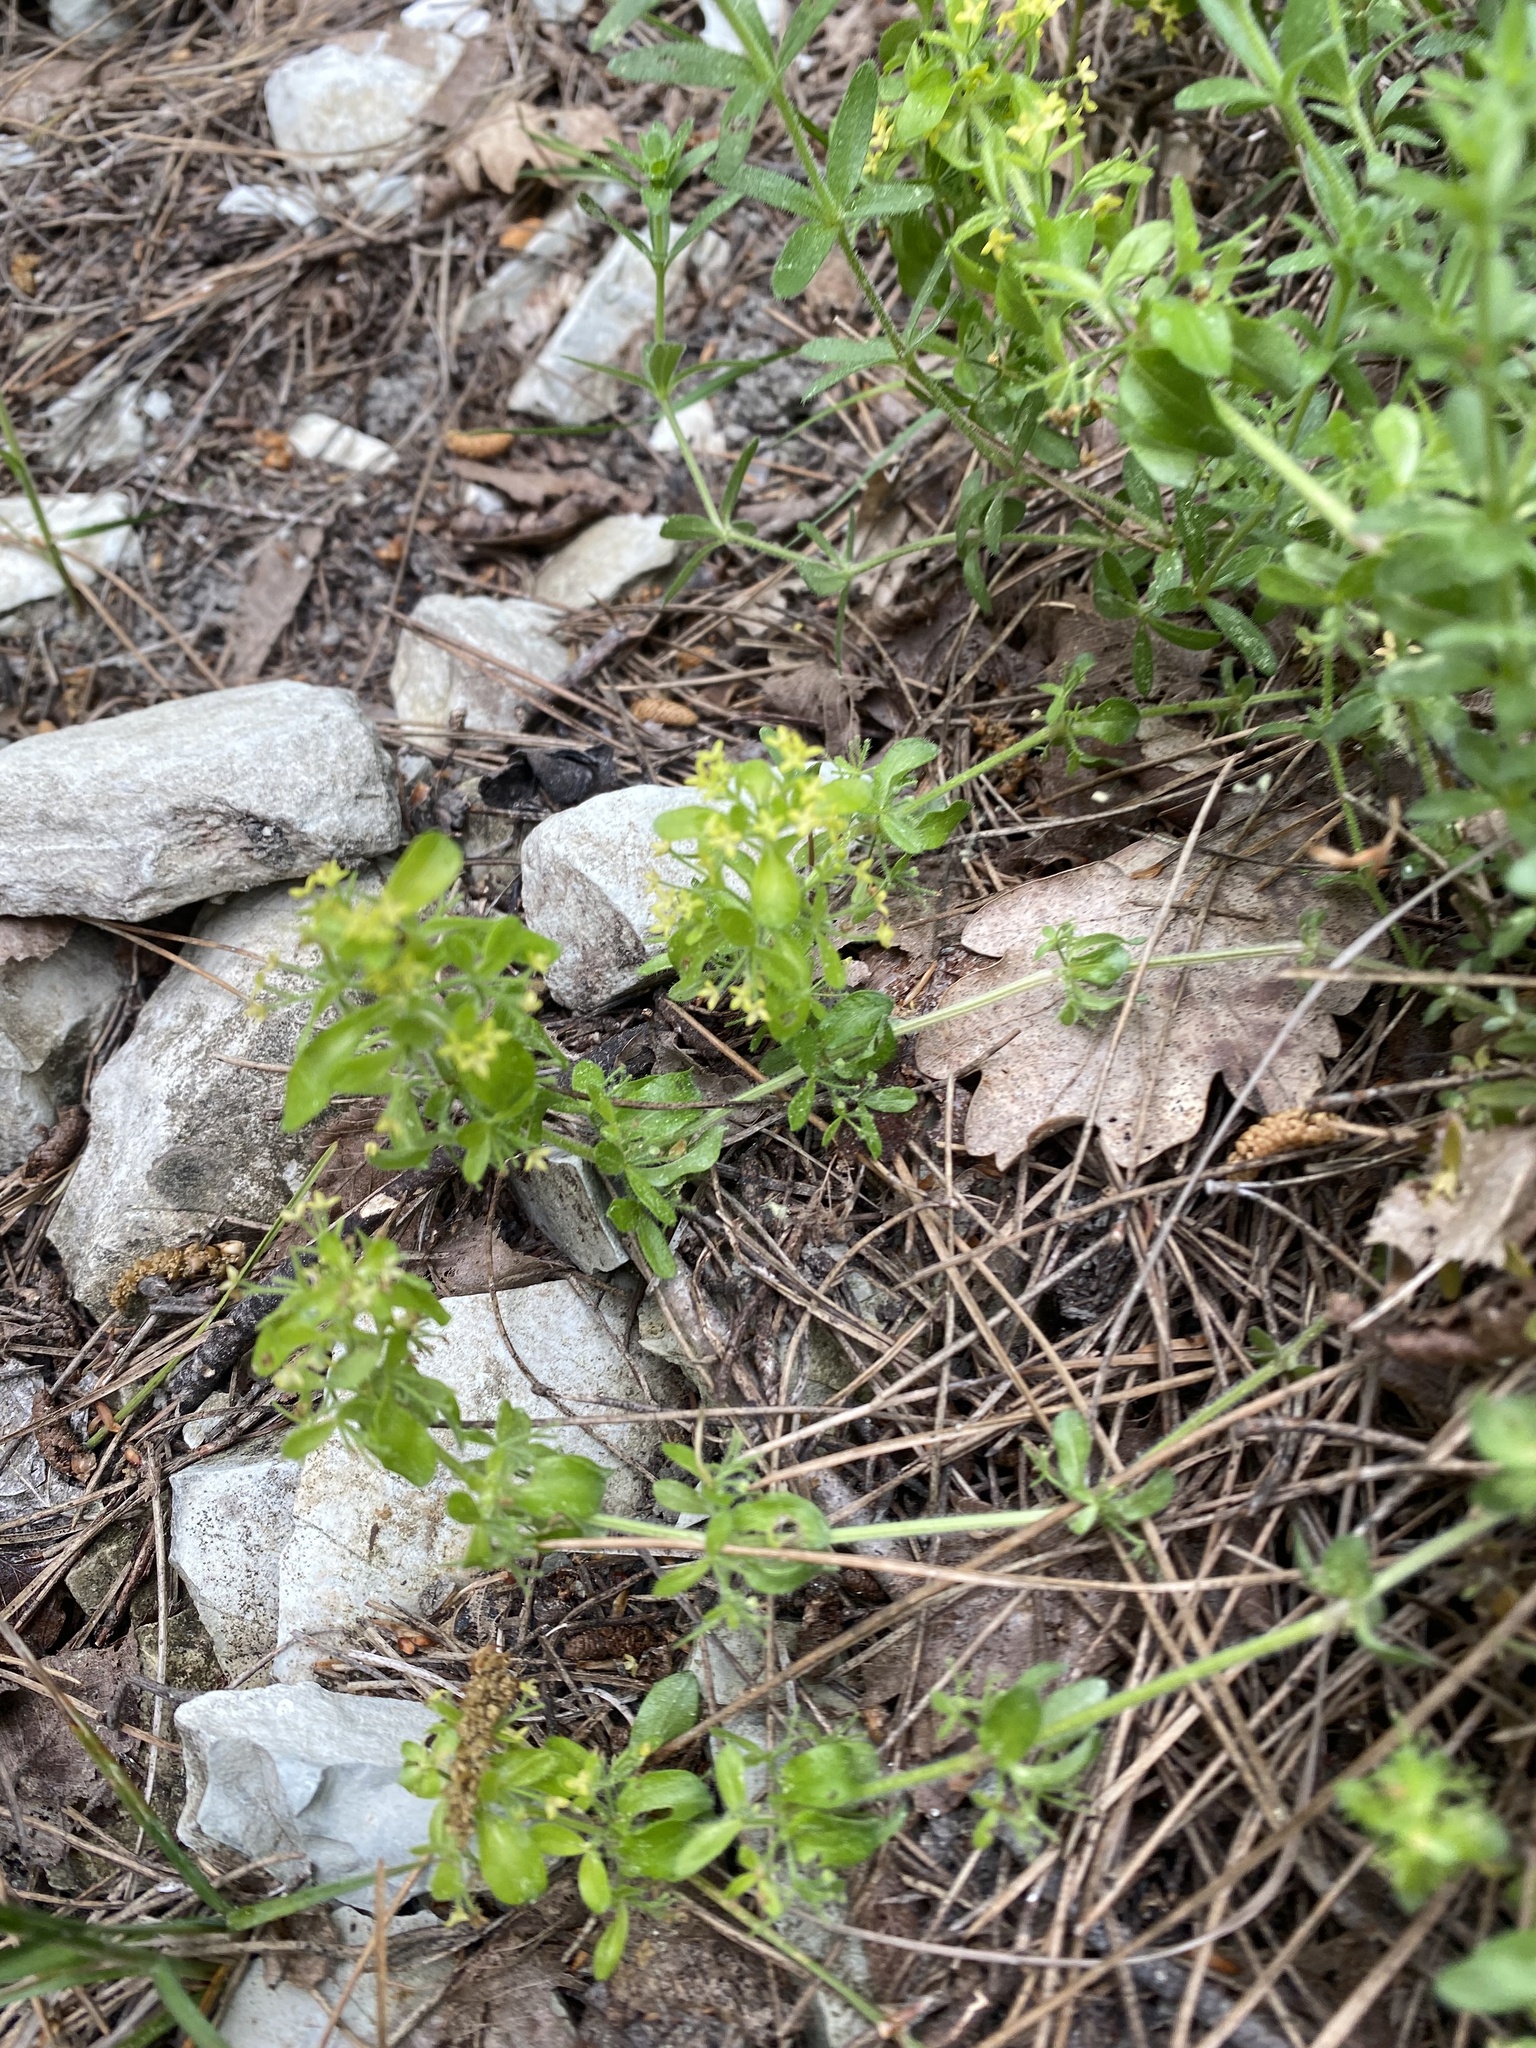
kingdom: Plantae
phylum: Tracheophyta
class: Magnoliopsida
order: Gentianales
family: Rubiaceae
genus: Cruciata
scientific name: Cruciata taurica
